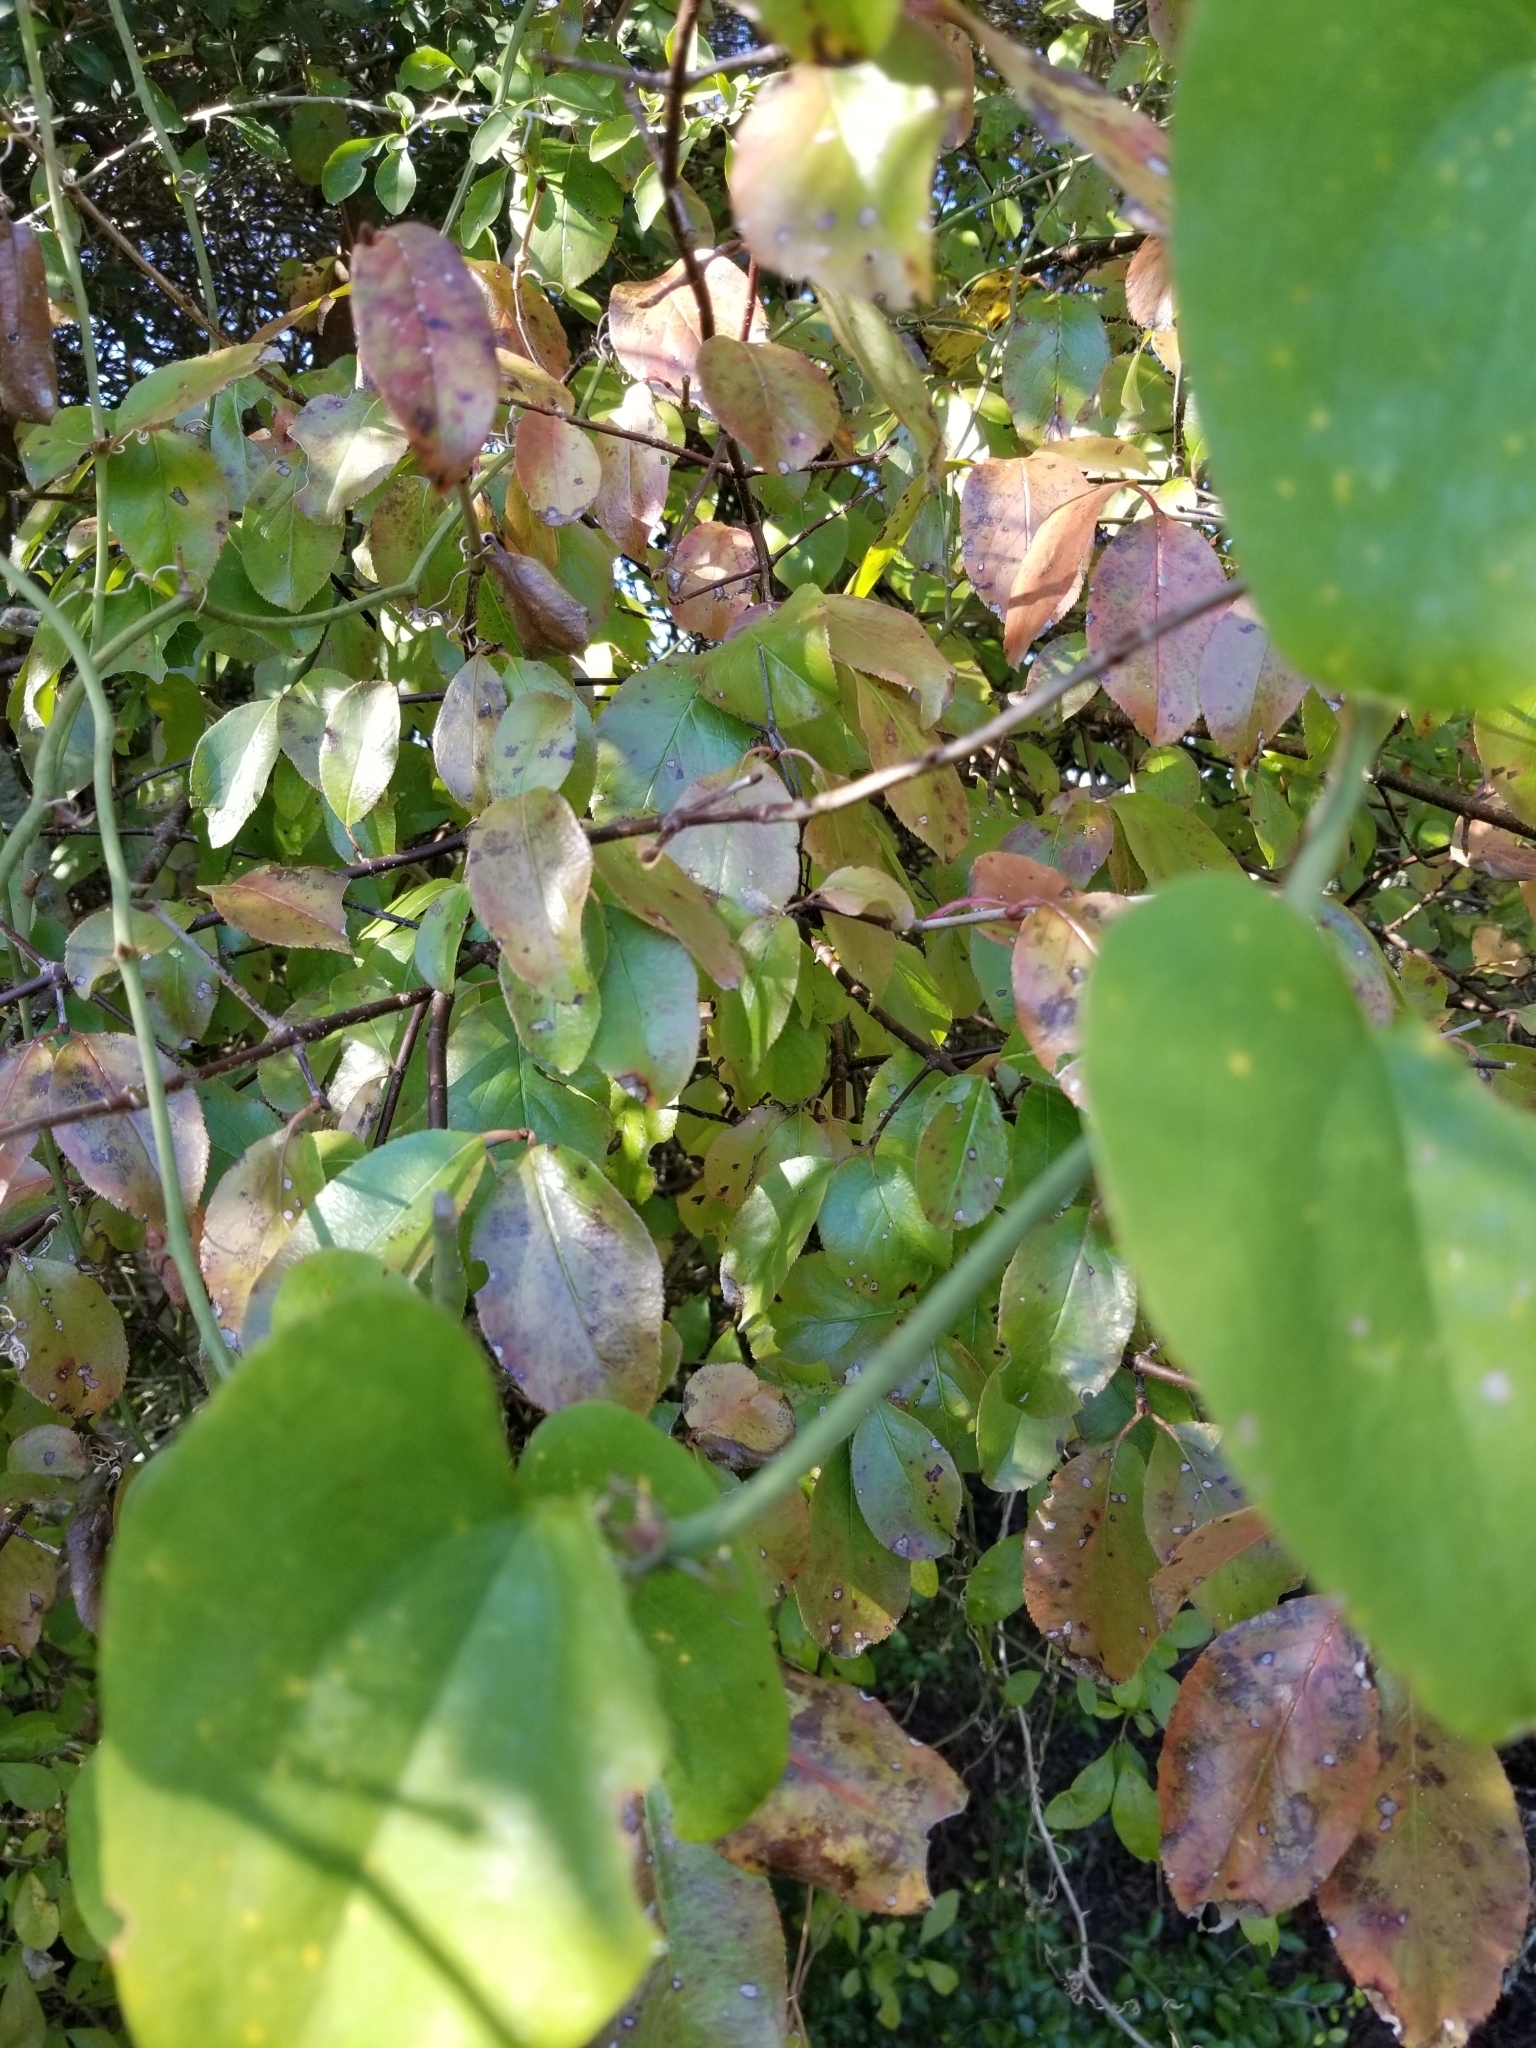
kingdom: Plantae
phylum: Tracheophyta
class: Magnoliopsida
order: Dipsacales
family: Viburnaceae
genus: Viburnum
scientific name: Viburnum rufidulum
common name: Blue haw
